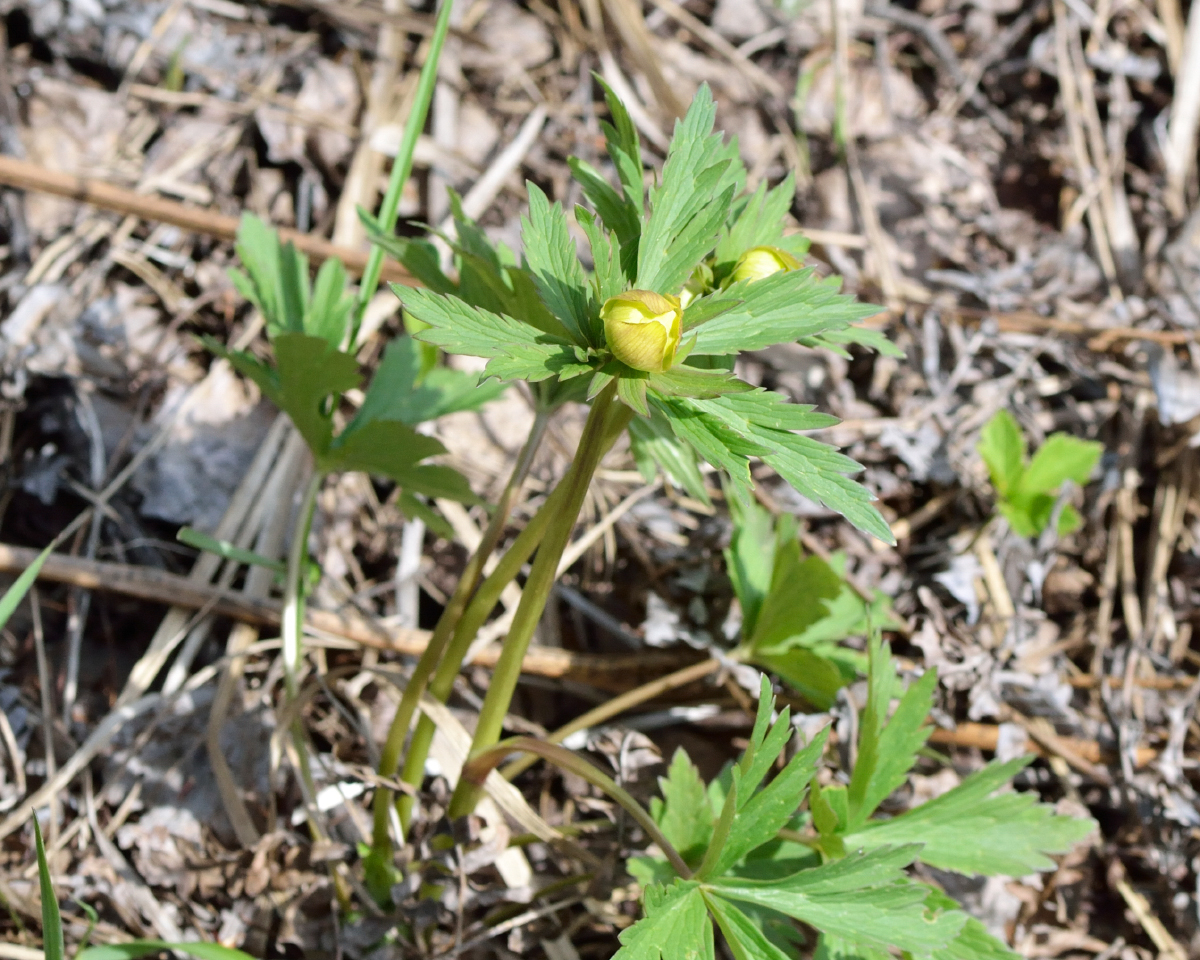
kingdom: Plantae
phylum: Tracheophyta
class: Magnoliopsida
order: Ranunculales
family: Ranunculaceae
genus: Trollius
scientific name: Trollius europaeus
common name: European globeflower
